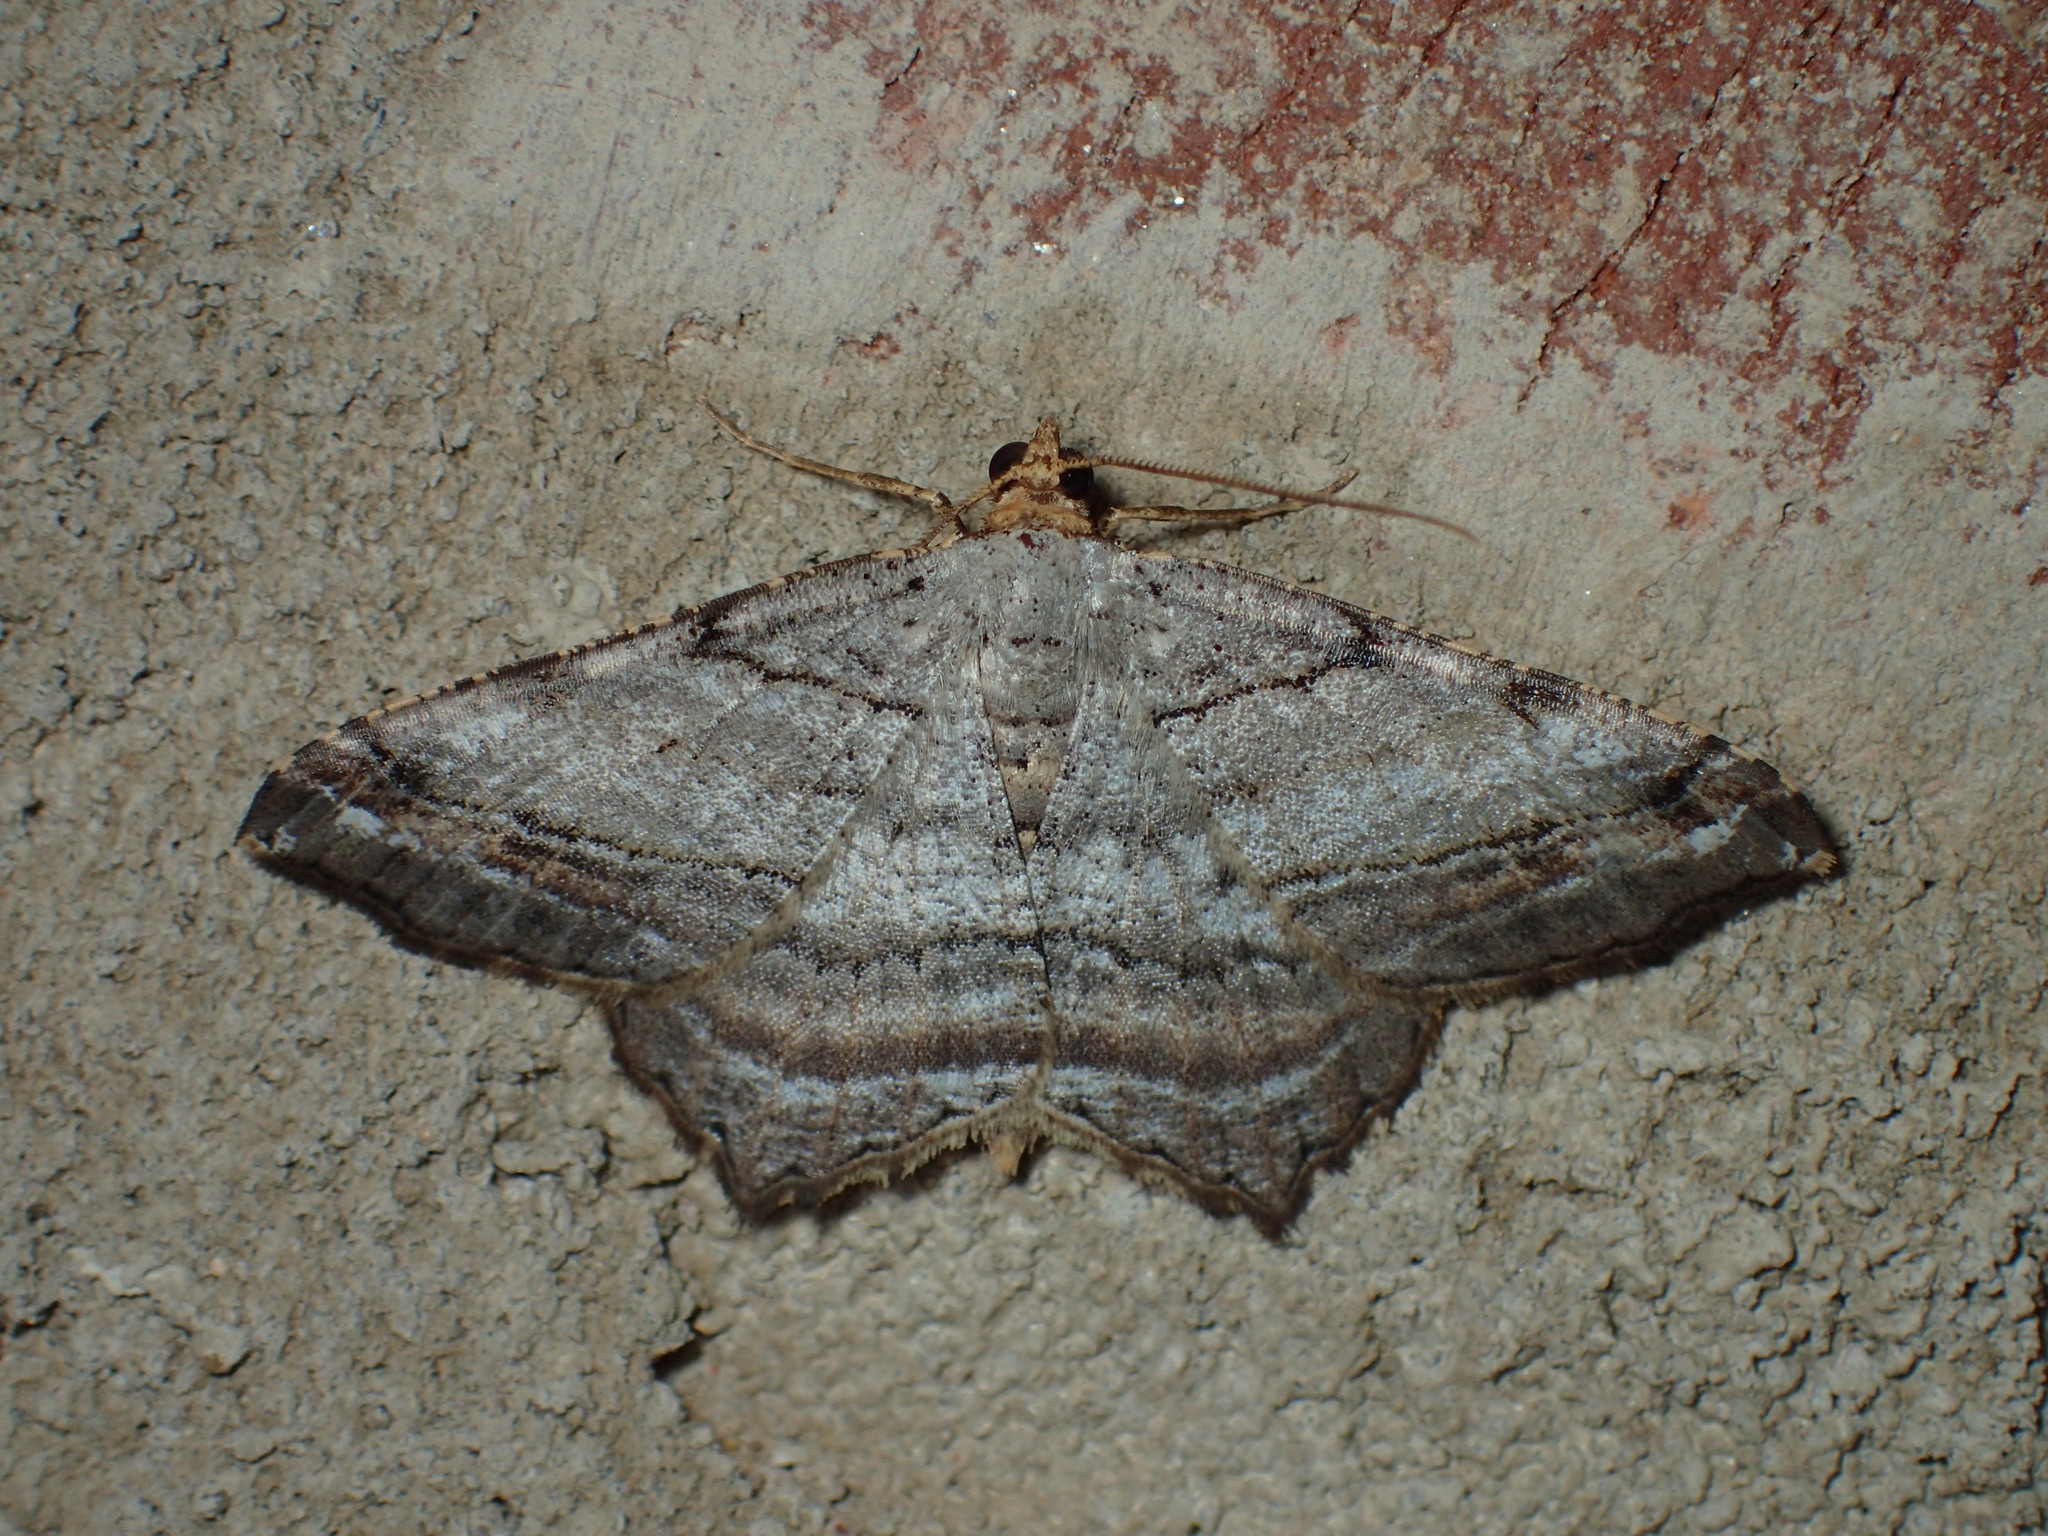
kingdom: Animalia
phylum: Arthropoda
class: Insecta
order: Lepidoptera
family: Geometridae
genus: Macaria
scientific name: Macaria multilineata
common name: Many-lined angle
